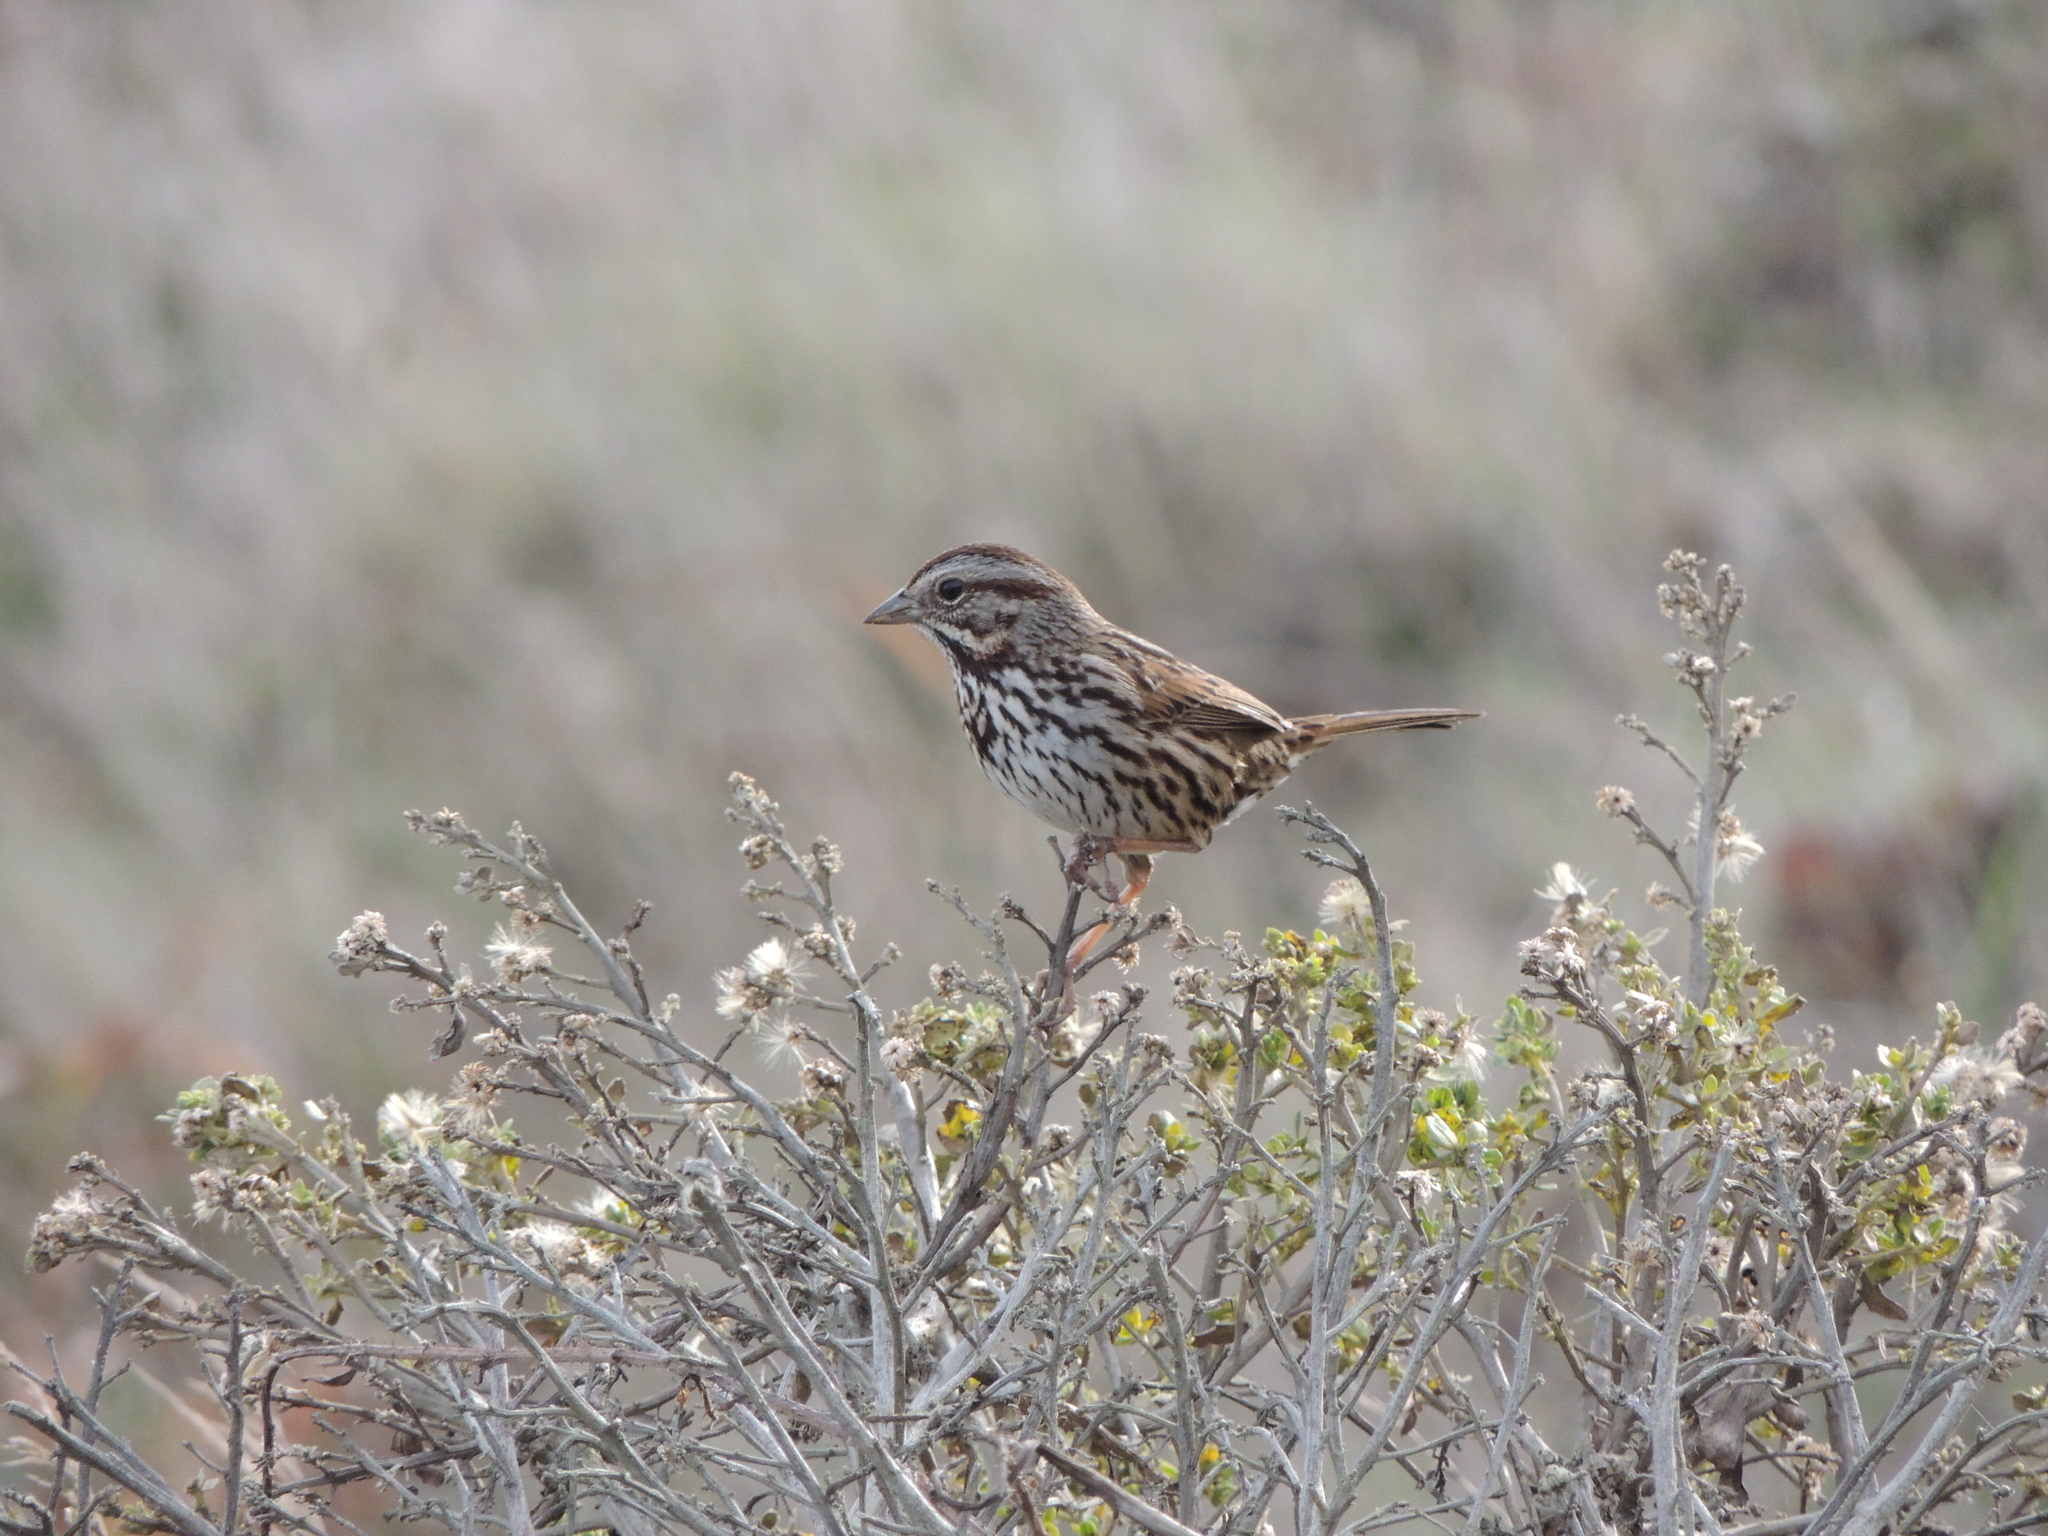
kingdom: Animalia
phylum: Chordata
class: Aves
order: Passeriformes
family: Passerellidae
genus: Melospiza
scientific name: Melospiza melodia
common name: Song sparrow
